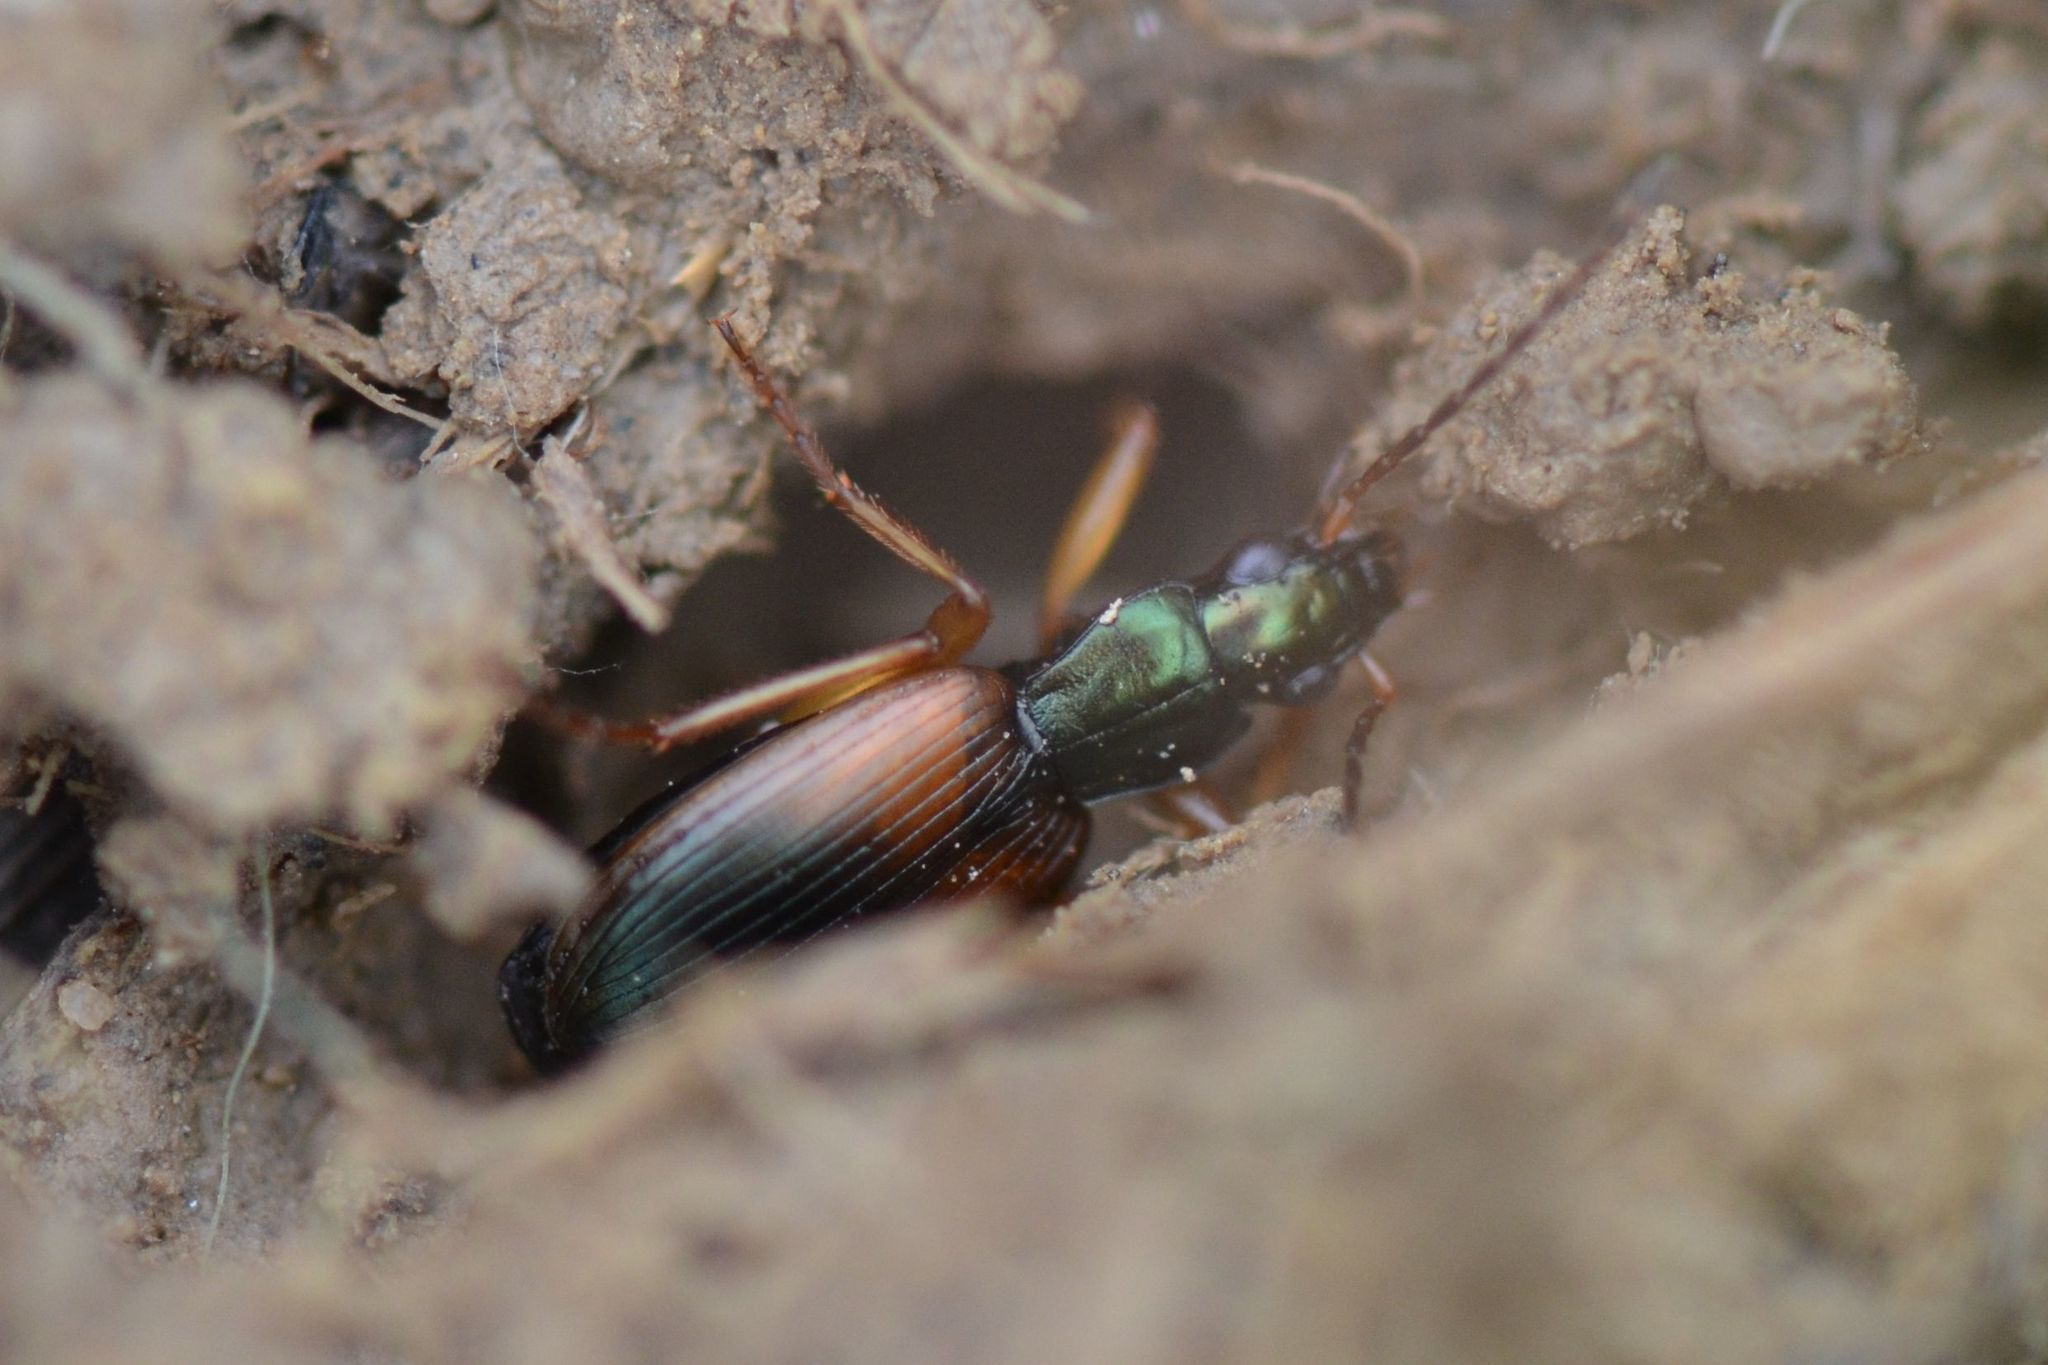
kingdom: Animalia
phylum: Arthropoda
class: Insecta
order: Coleoptera
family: Carabidae
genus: Anchomenus
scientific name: Anchomenus dorsalis
